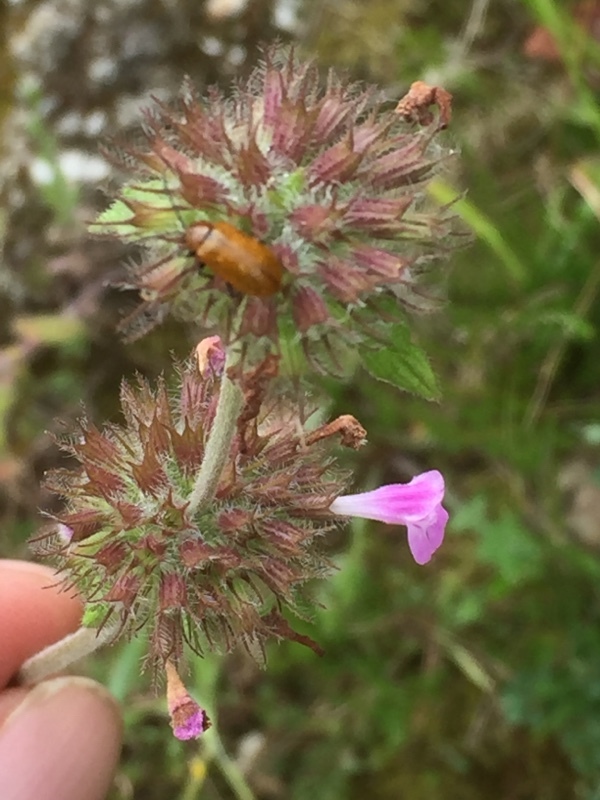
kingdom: Plantae
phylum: Tracheophyta
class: Magnoliopsida
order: Lamiales
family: Lamiaceae
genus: Clinopodium
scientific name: Clinopodium vulgare
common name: Wild basil
